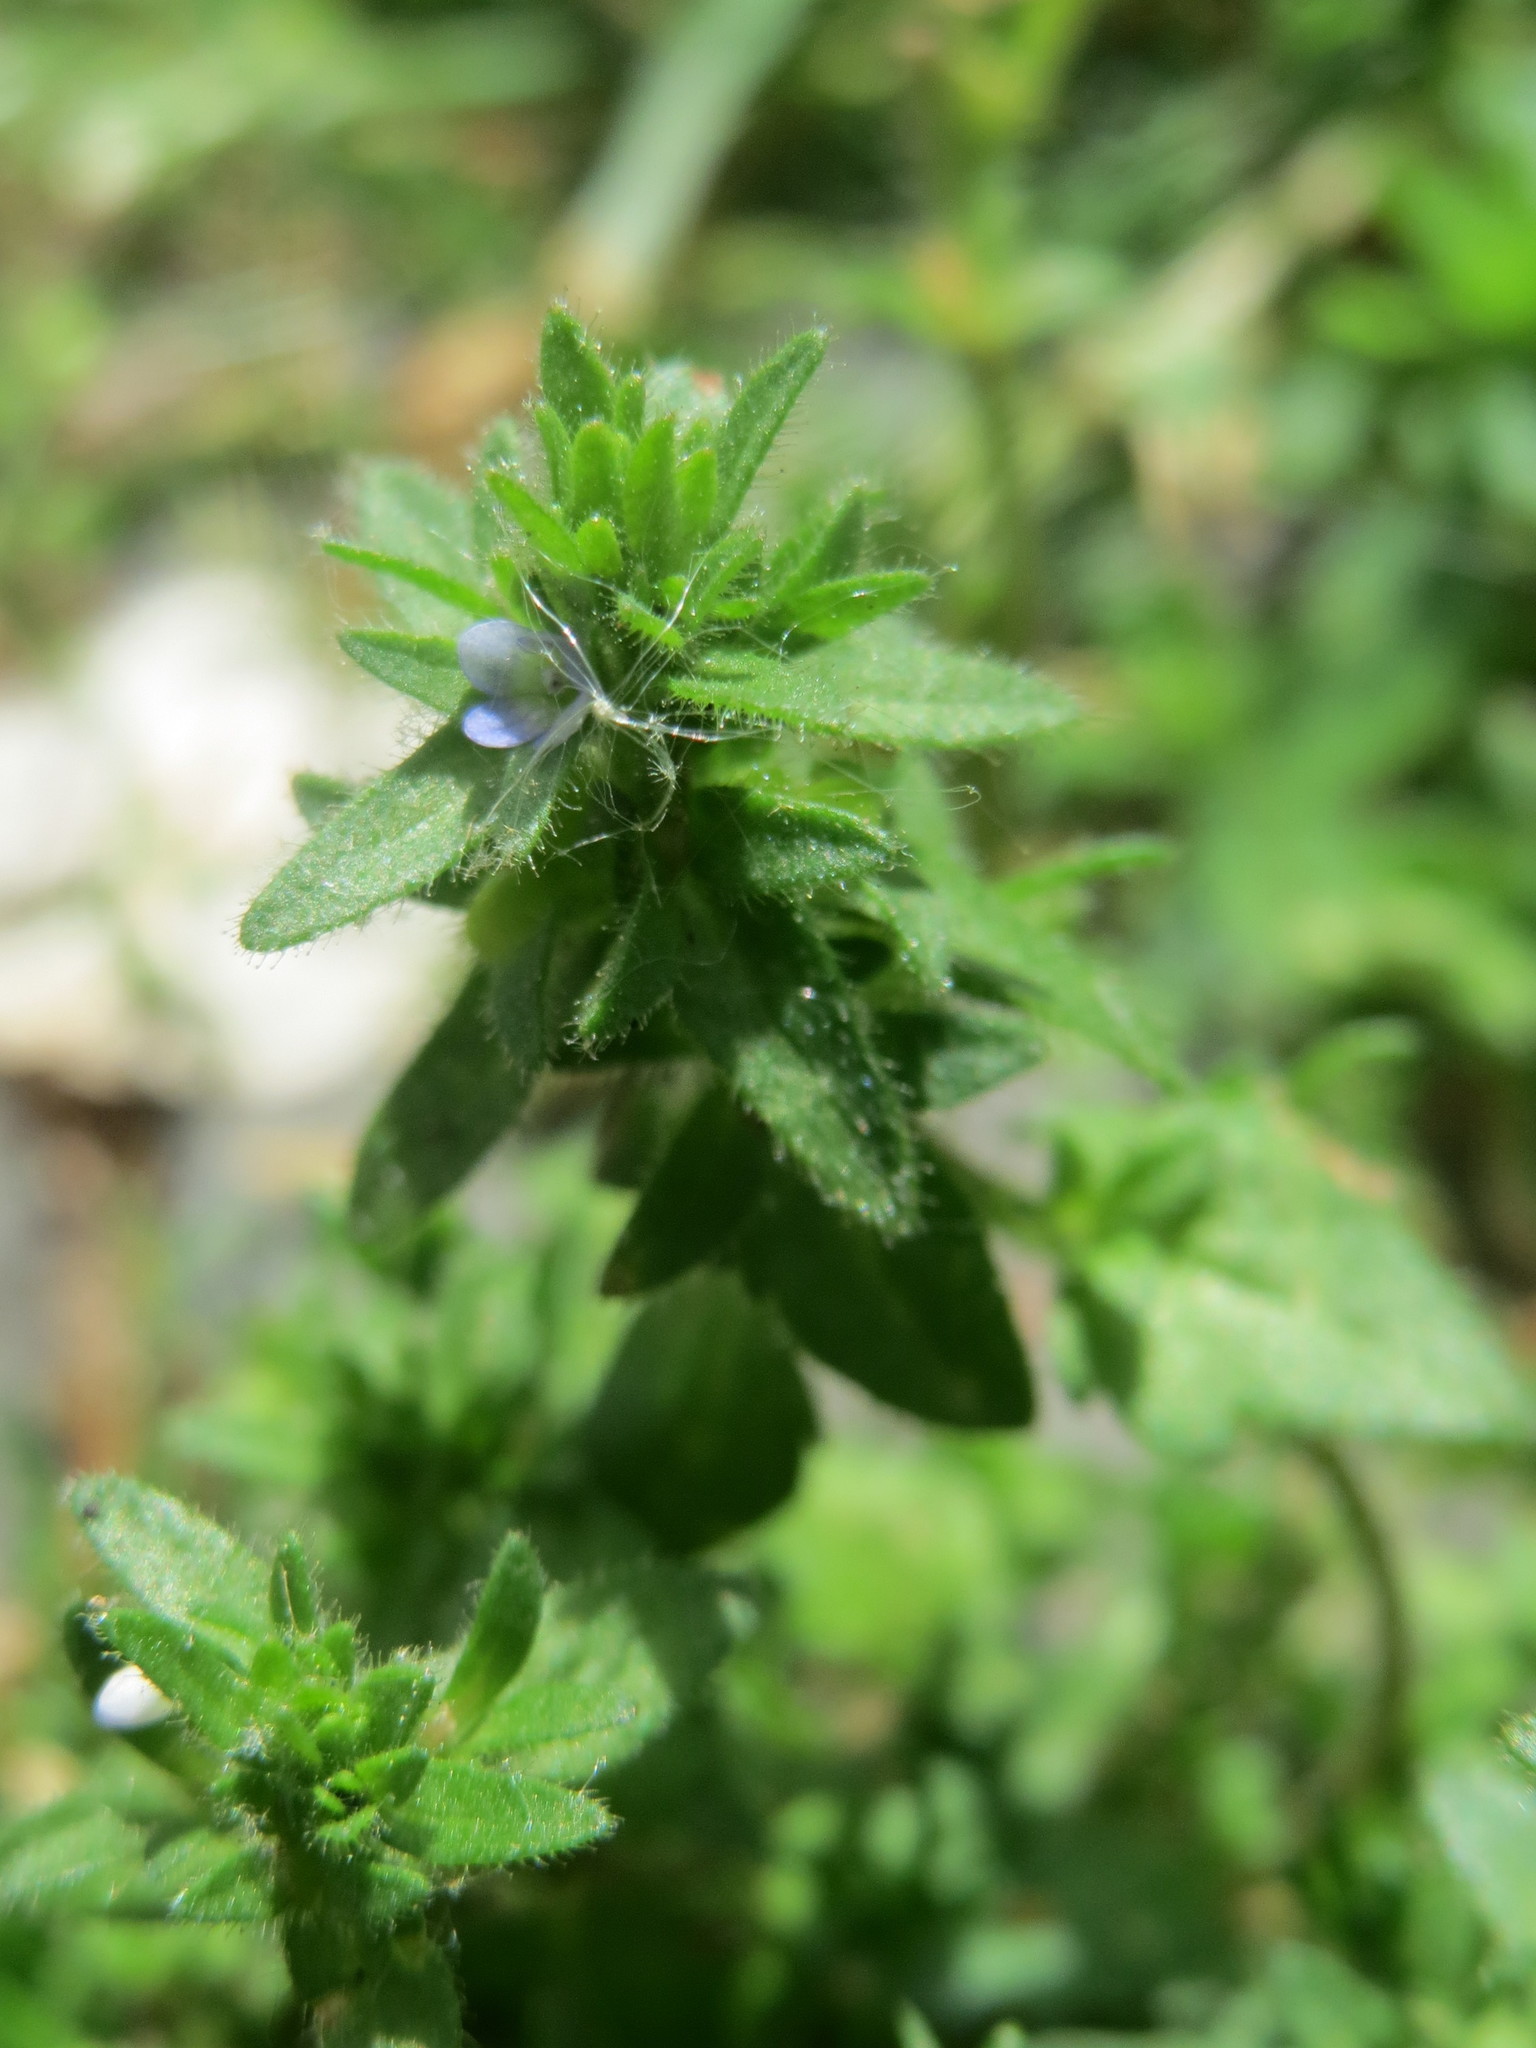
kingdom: Plantae
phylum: Tracheophyta
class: Magnoliopsida
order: Lamiales
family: Plantaginaceae
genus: Veronica
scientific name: Veronica arvensis
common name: Corn speedwell
